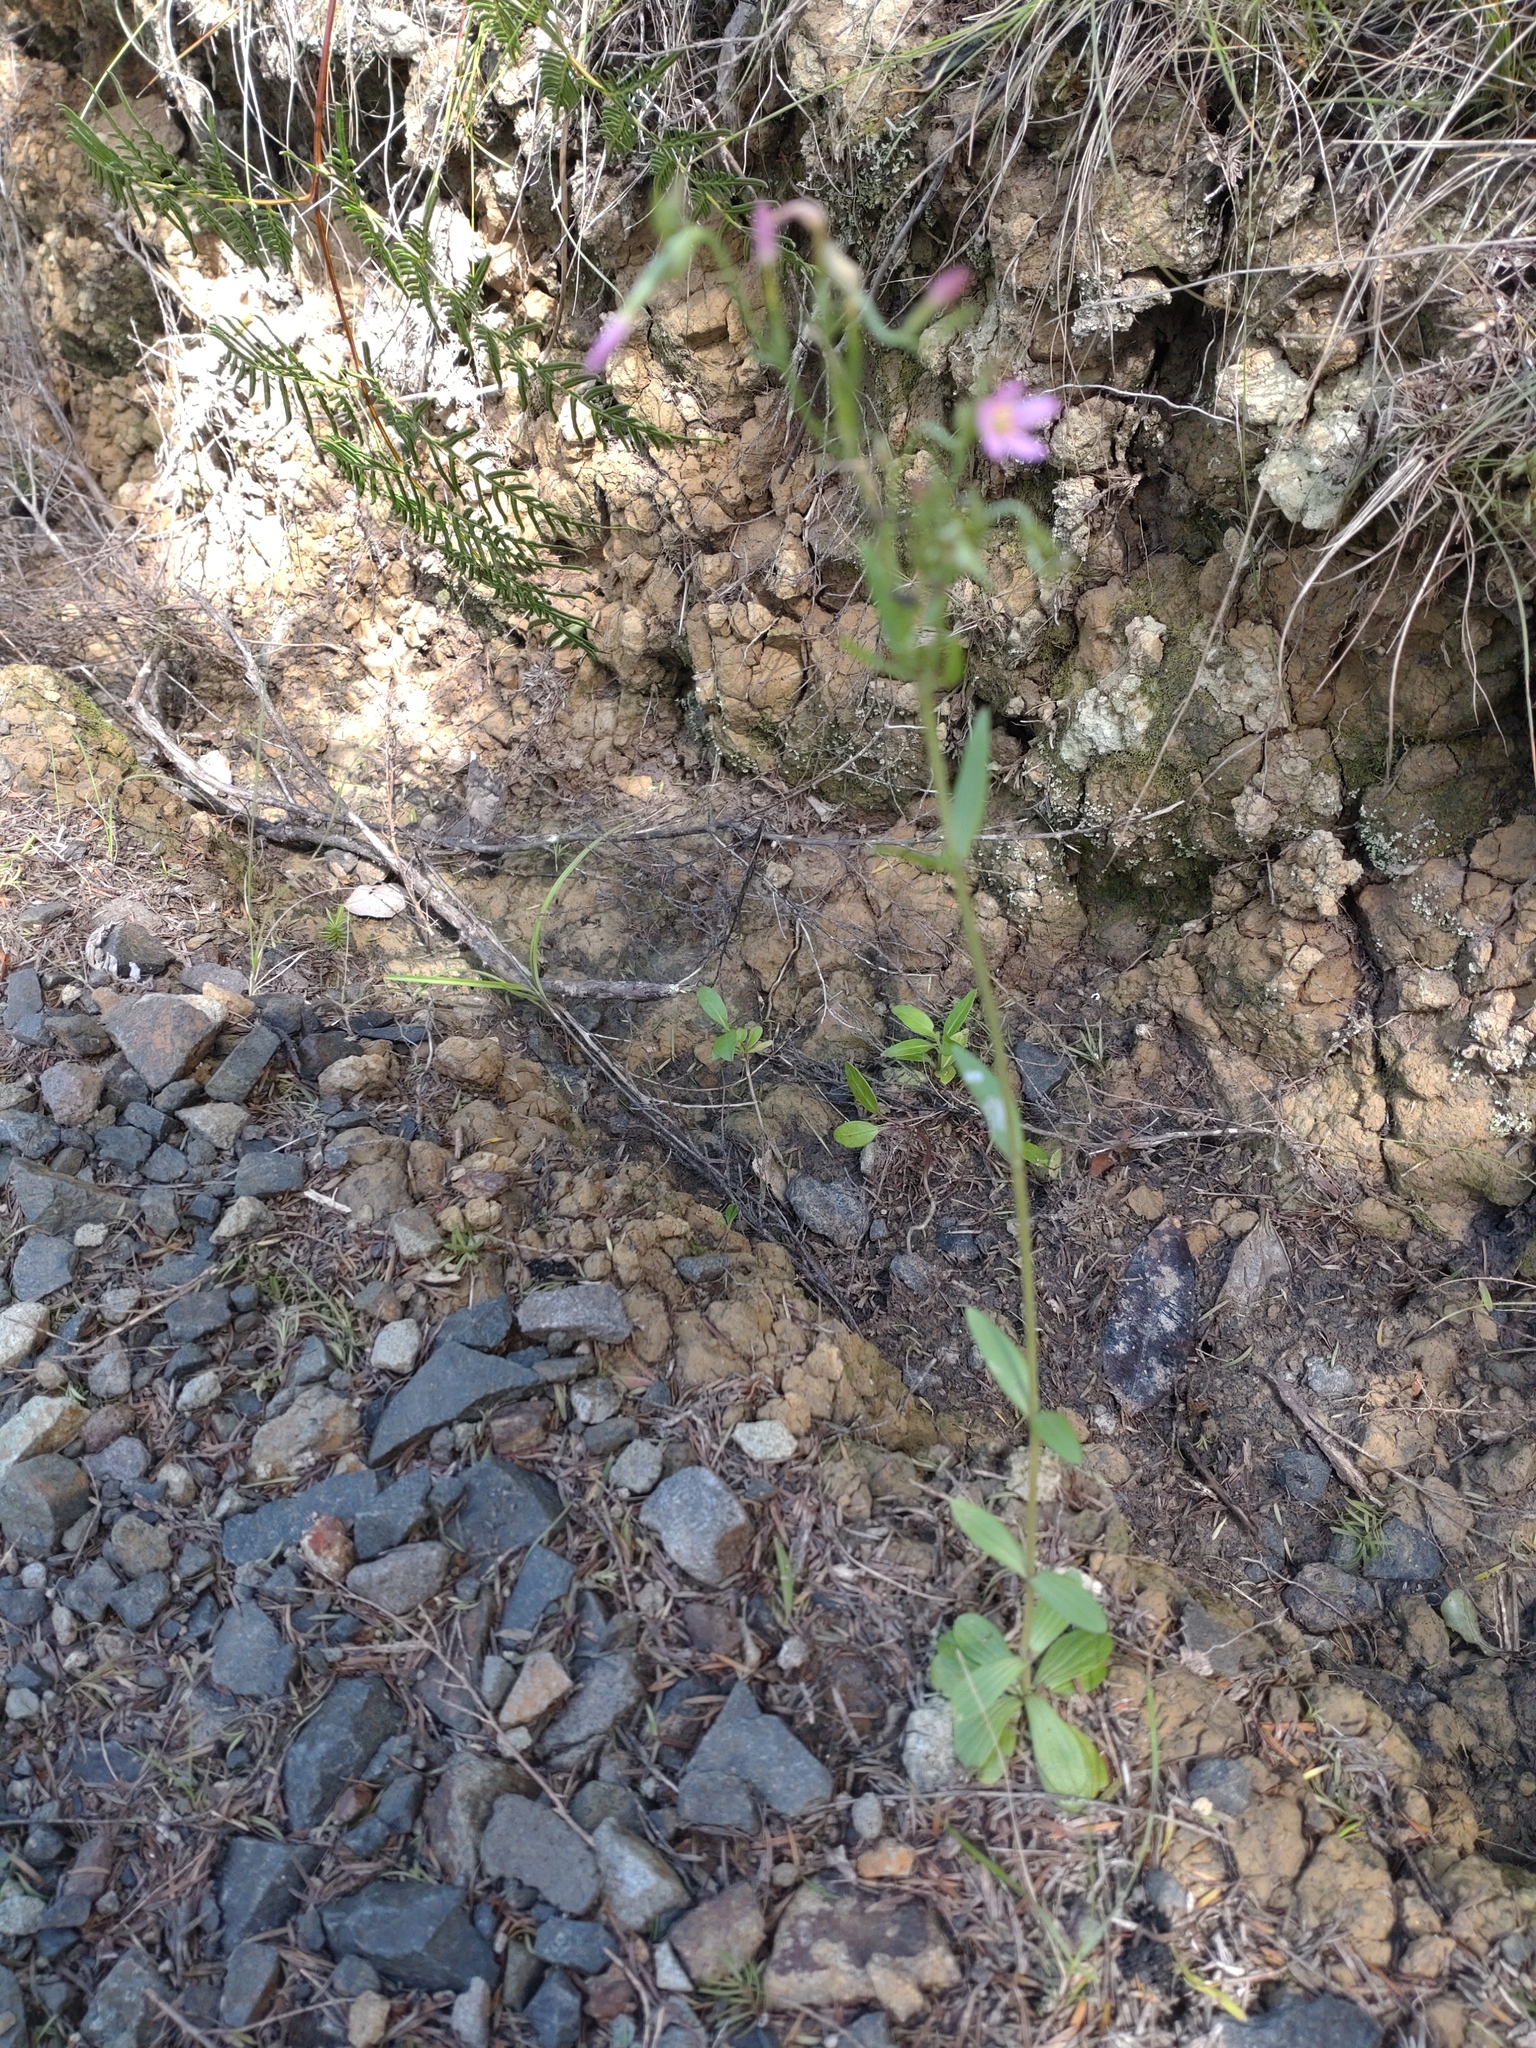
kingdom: Plantae
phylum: Tracheophyta
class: Magnoliopsida
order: Gentianales
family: Gentianaceae
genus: Centaurium
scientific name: Centaurium erythraea
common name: Common centaury
